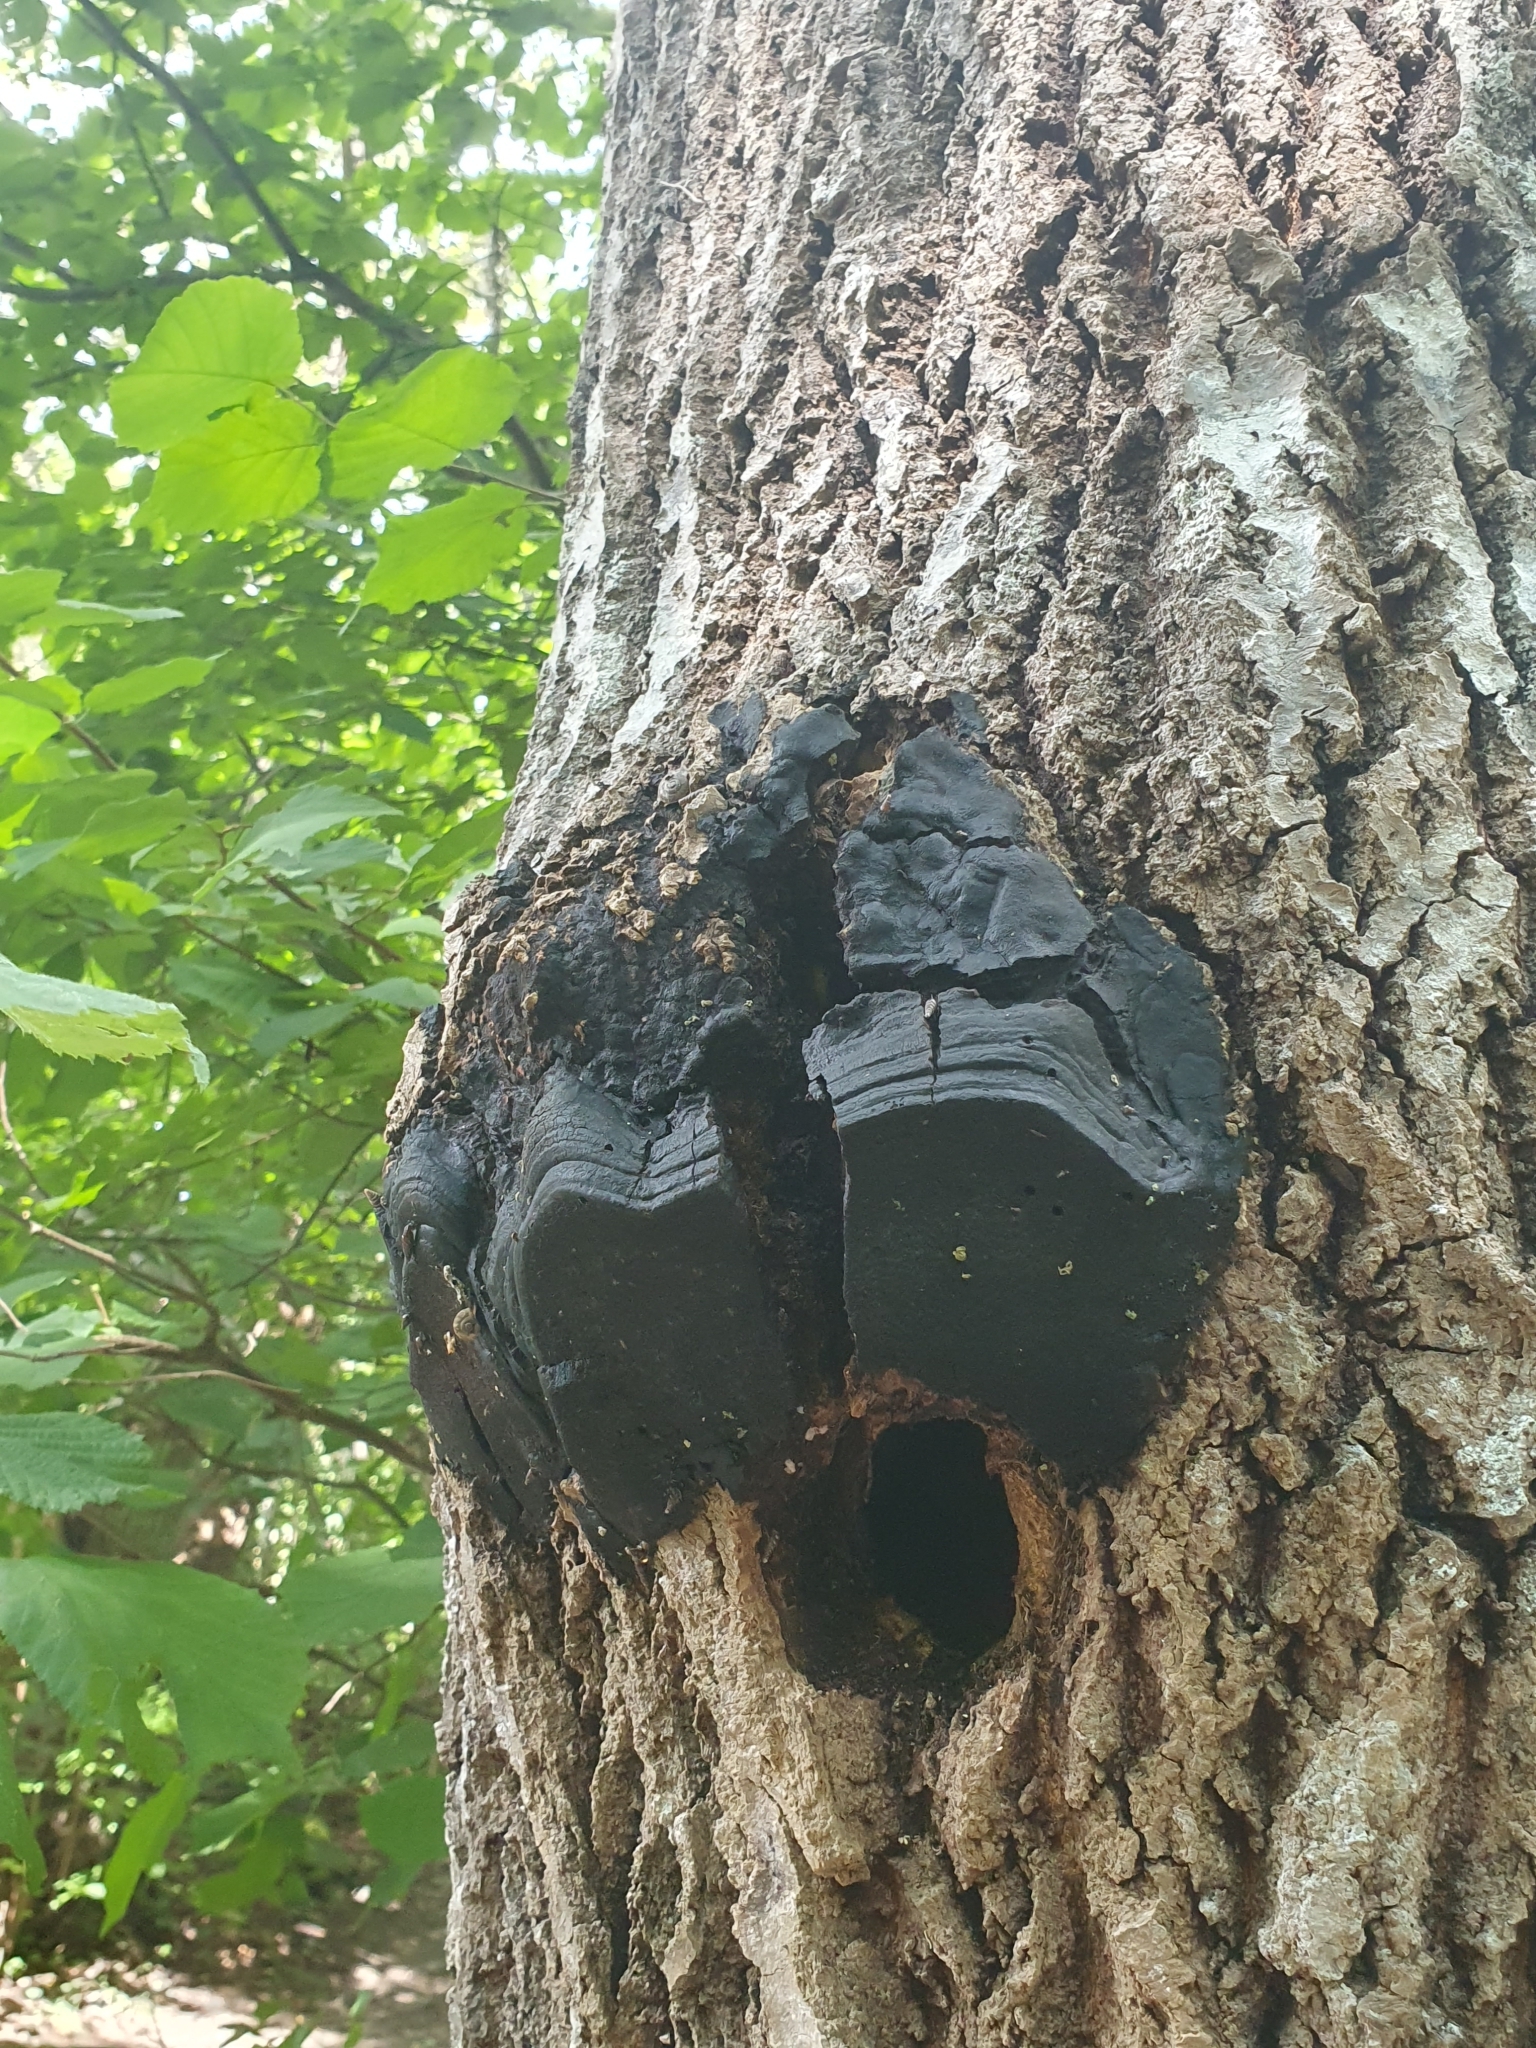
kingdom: Fungi
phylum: Basidiomycota
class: Agaricomycetes
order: Hymenochaetales
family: Hymenochaetaceae
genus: Phellinus
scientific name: Phellinus tremulae
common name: Aspen bracket
